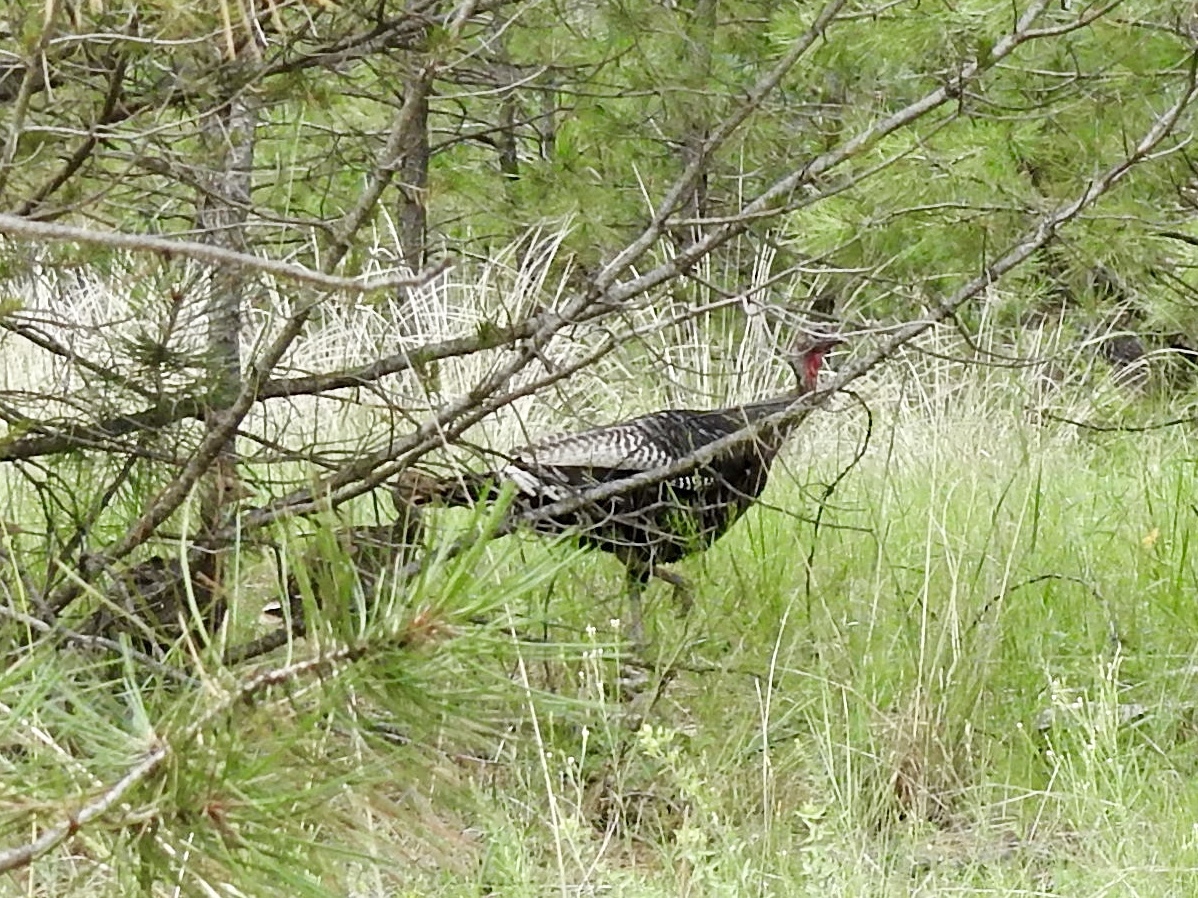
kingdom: Animalia
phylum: Chordata
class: Aves
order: Galliformes
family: Phasianidae
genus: Meleagris
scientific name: Meleagris gallopavo
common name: Wild turkey
